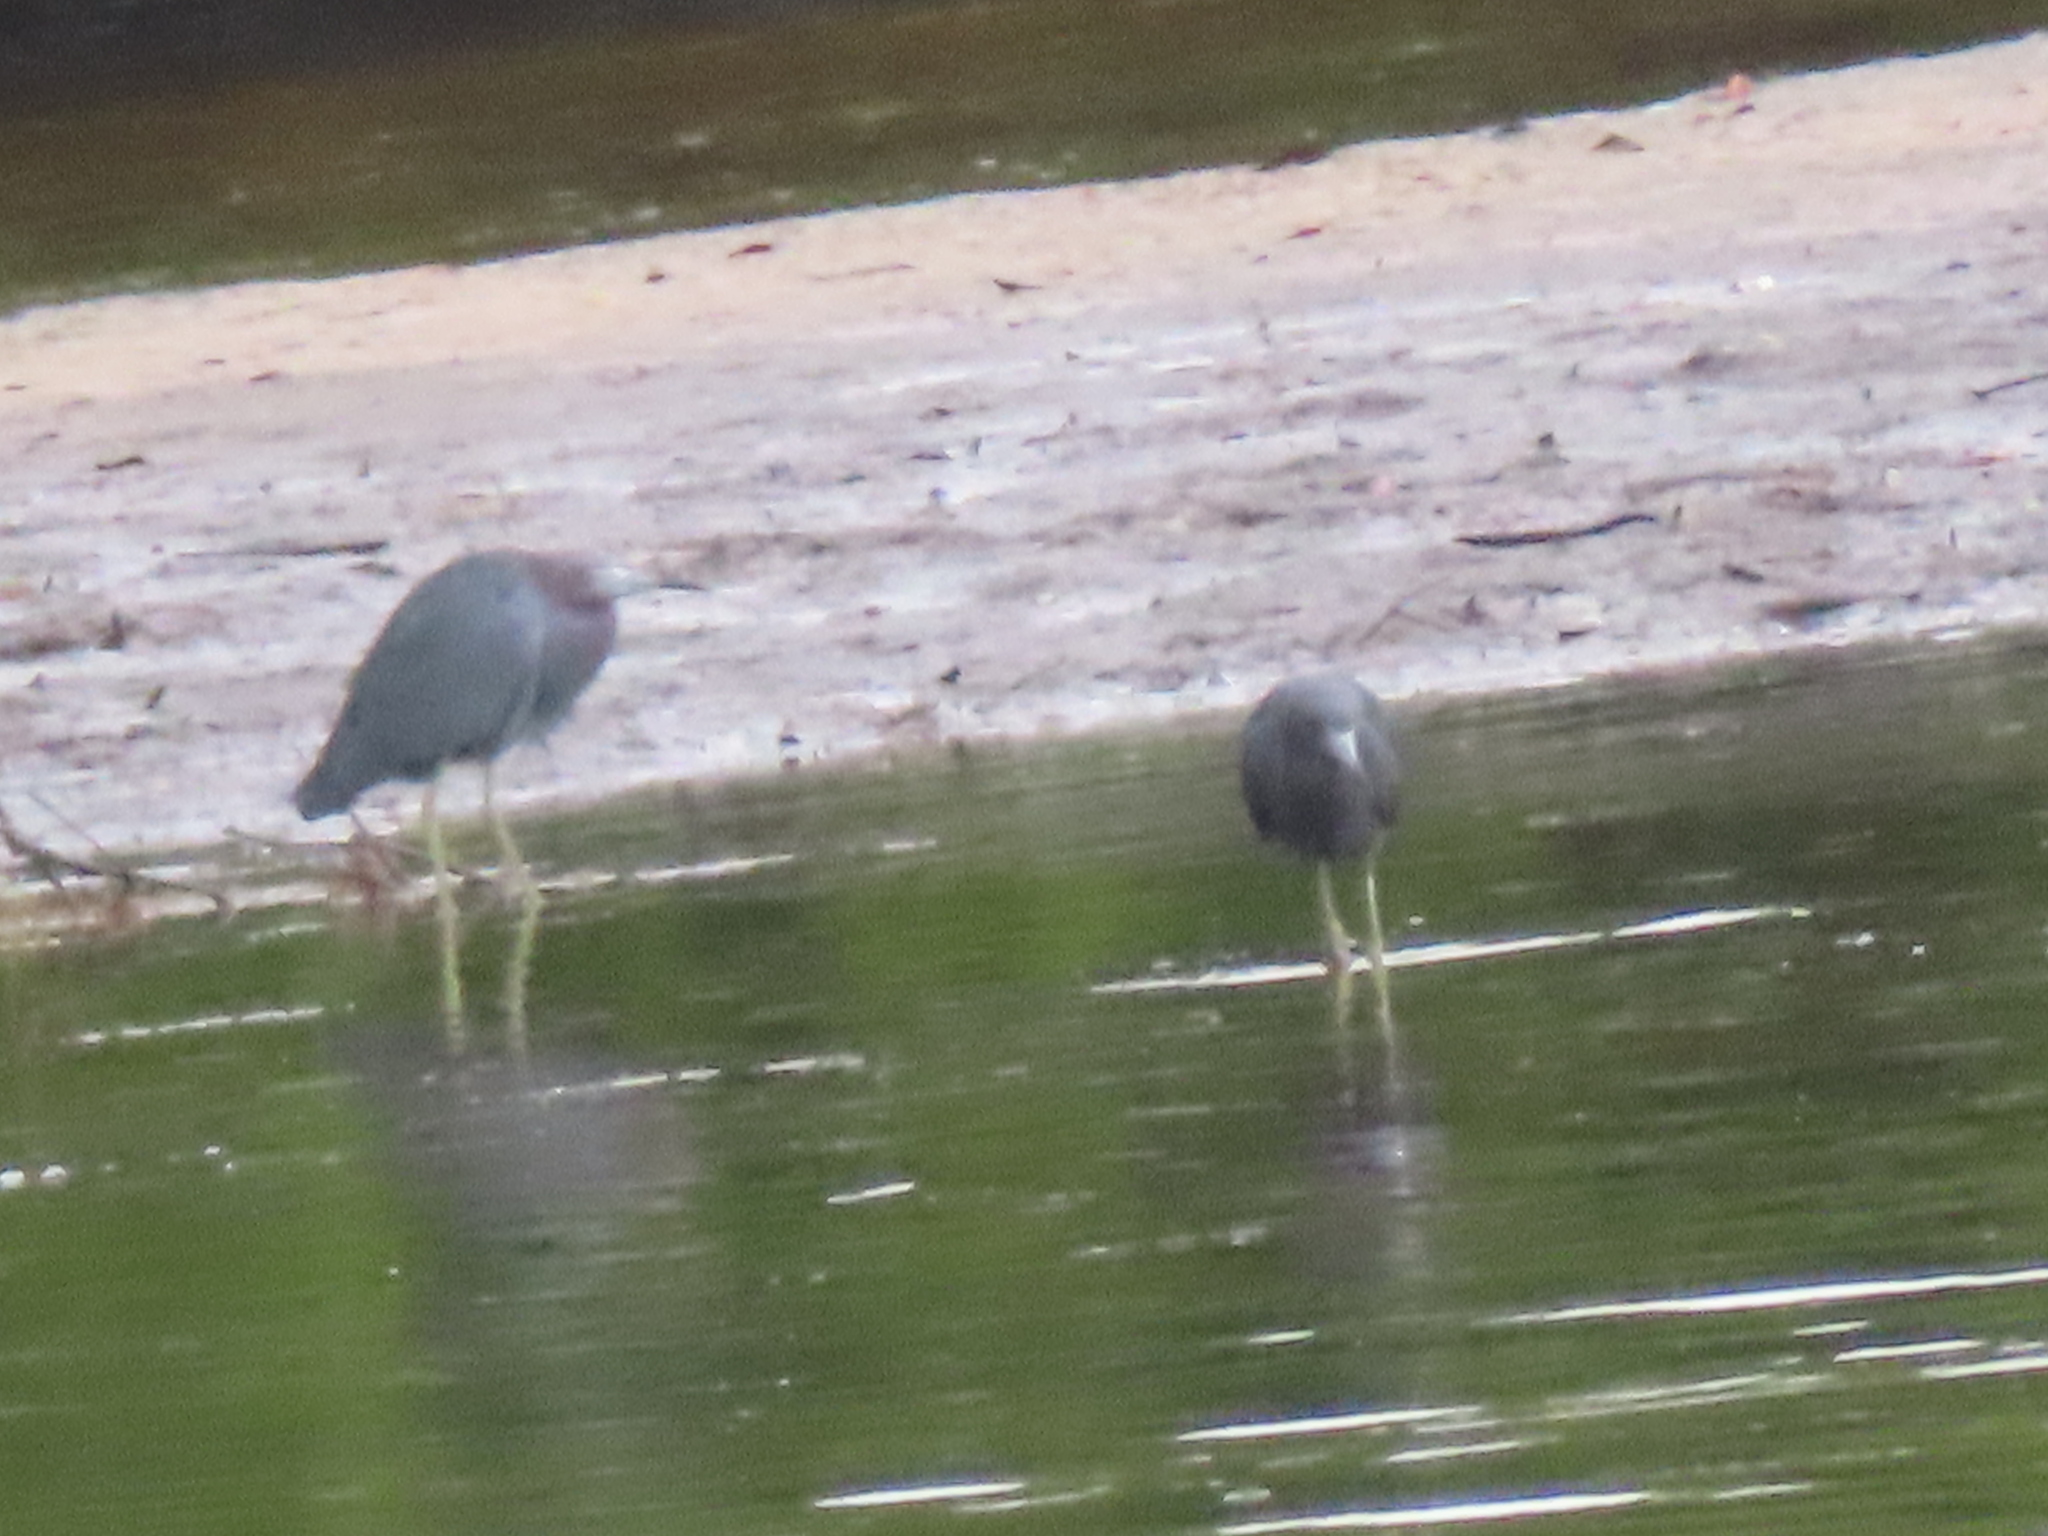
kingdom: Animalia
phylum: Chordata
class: Aves
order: Pelecaniformes
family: Ardeidae
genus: Egretta
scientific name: Egretta caerulea
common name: Little blue heron
